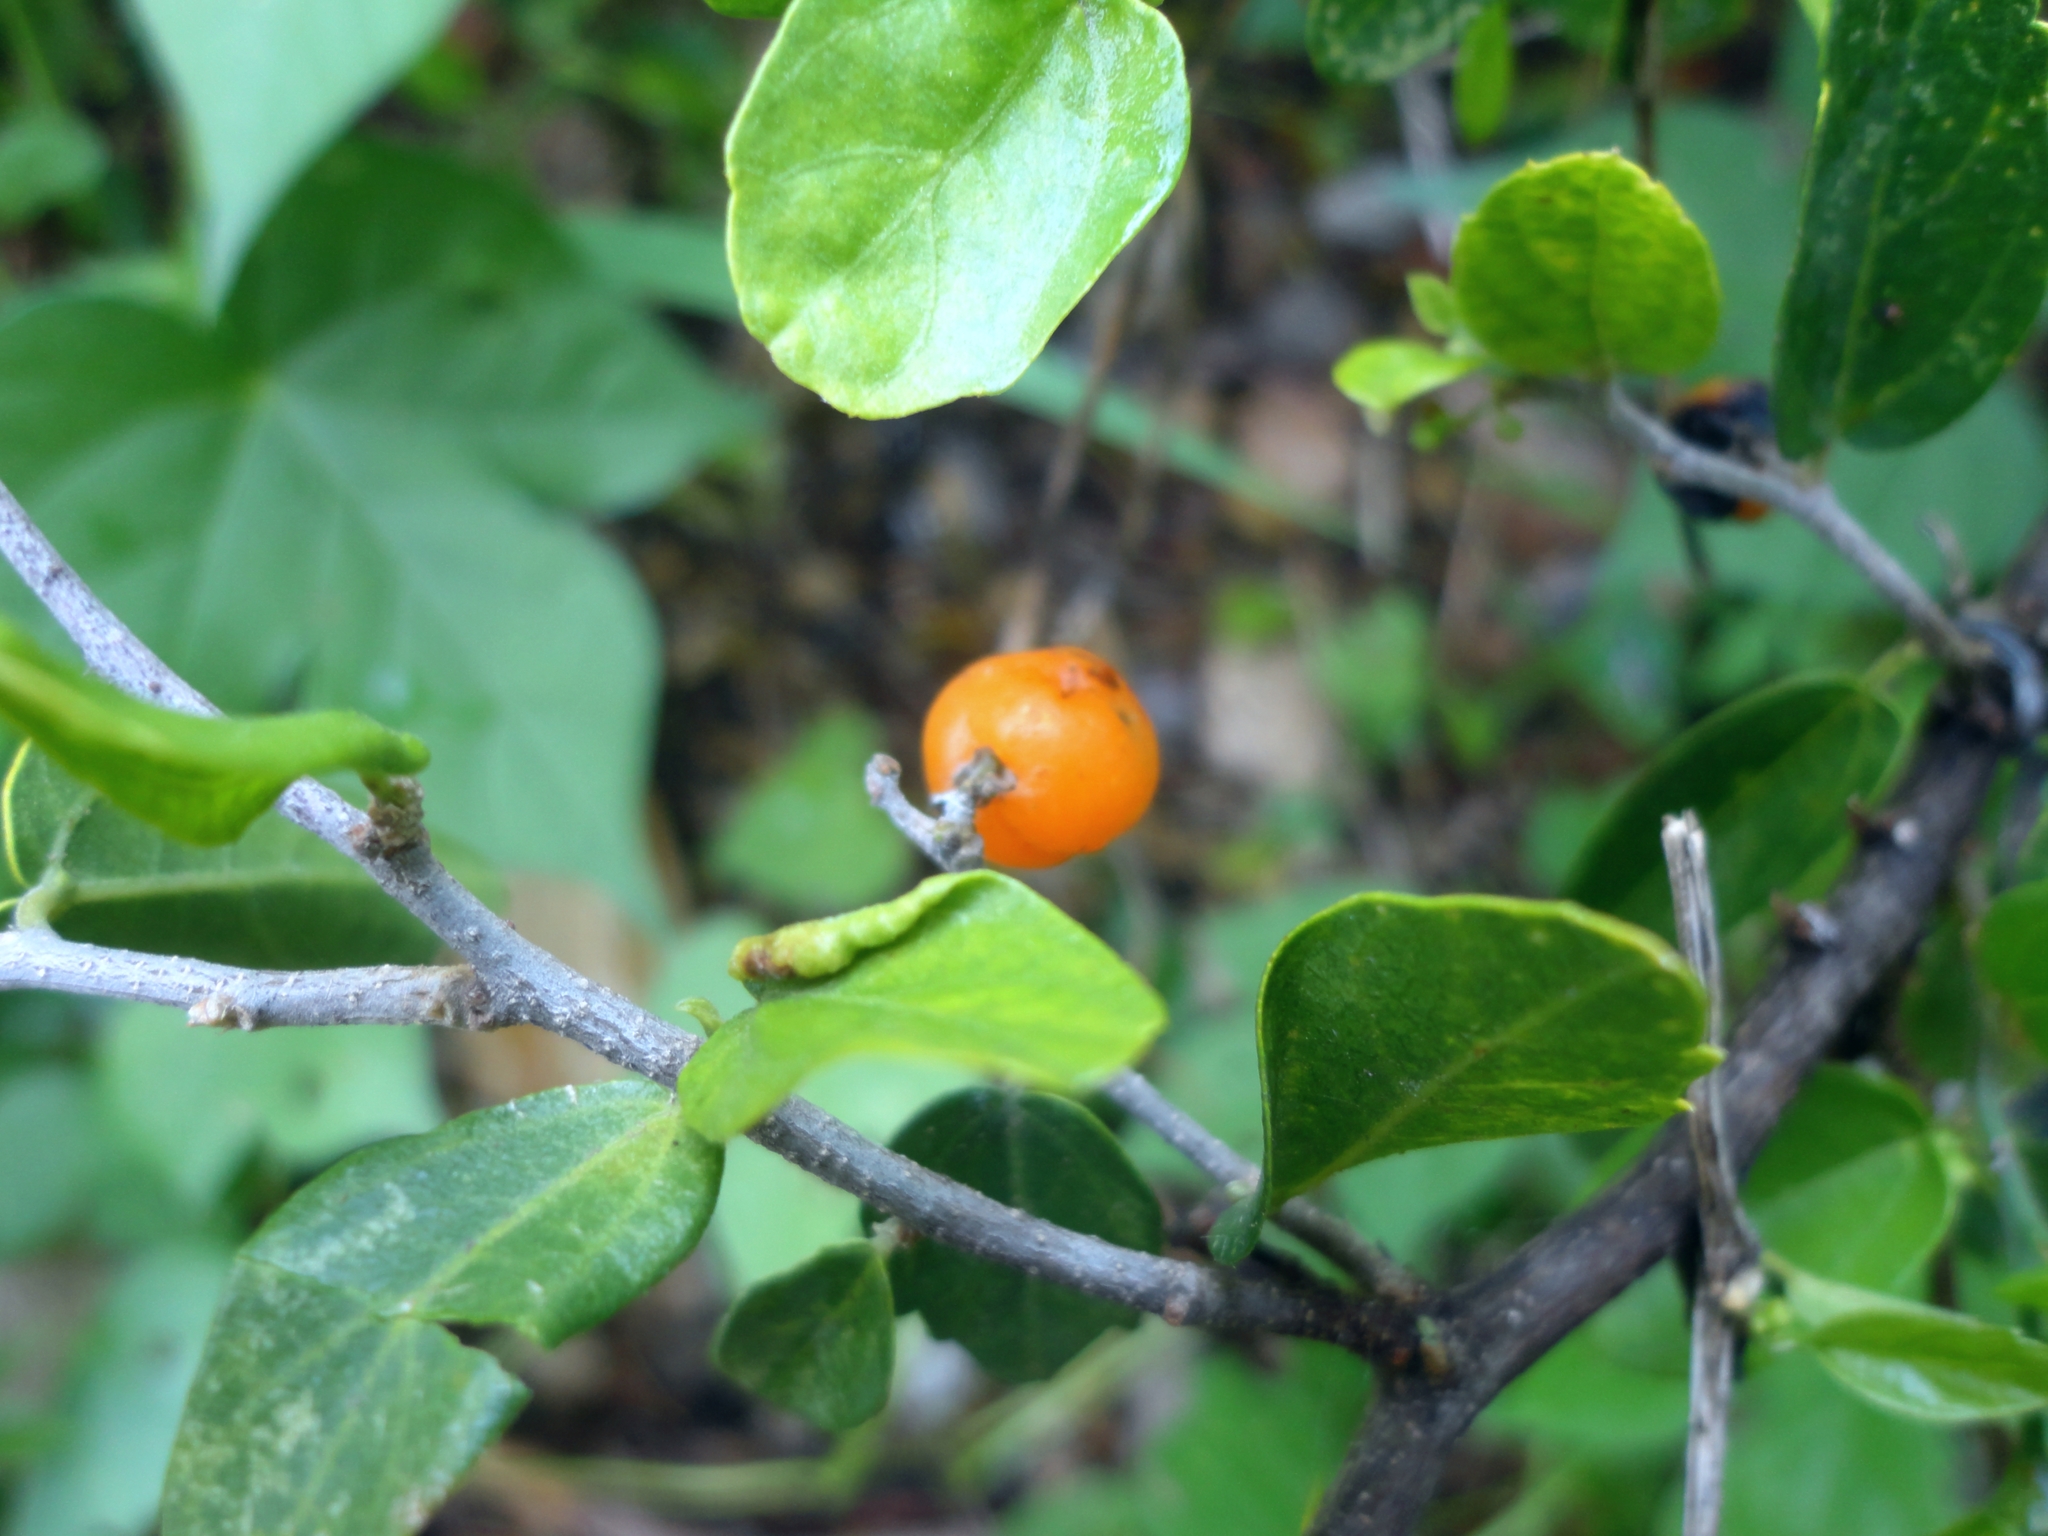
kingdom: Plantae
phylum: Tracheophyta
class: Magnoliopsida
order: Rosales
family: Cannabaceae
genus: Celtis
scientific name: Celtis pallida
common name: Desert hackberry
